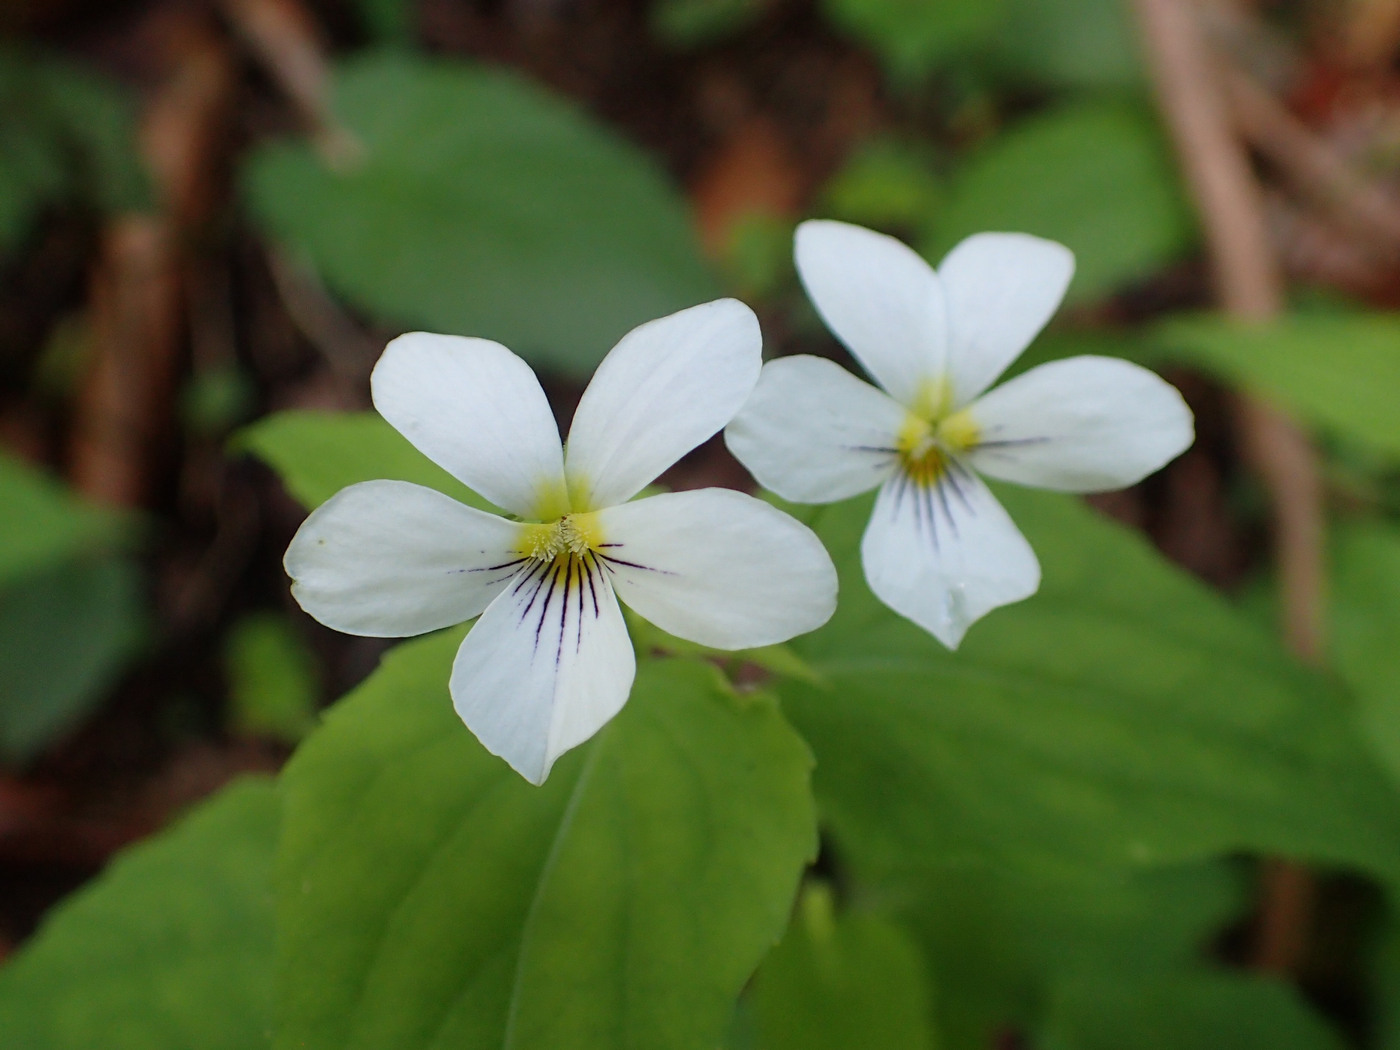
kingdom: Plantae
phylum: Tracheophyta
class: Magnoliopsida
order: Malpighiales
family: Violaceae
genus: Viola
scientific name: Viola canadensis
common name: Canada violet
